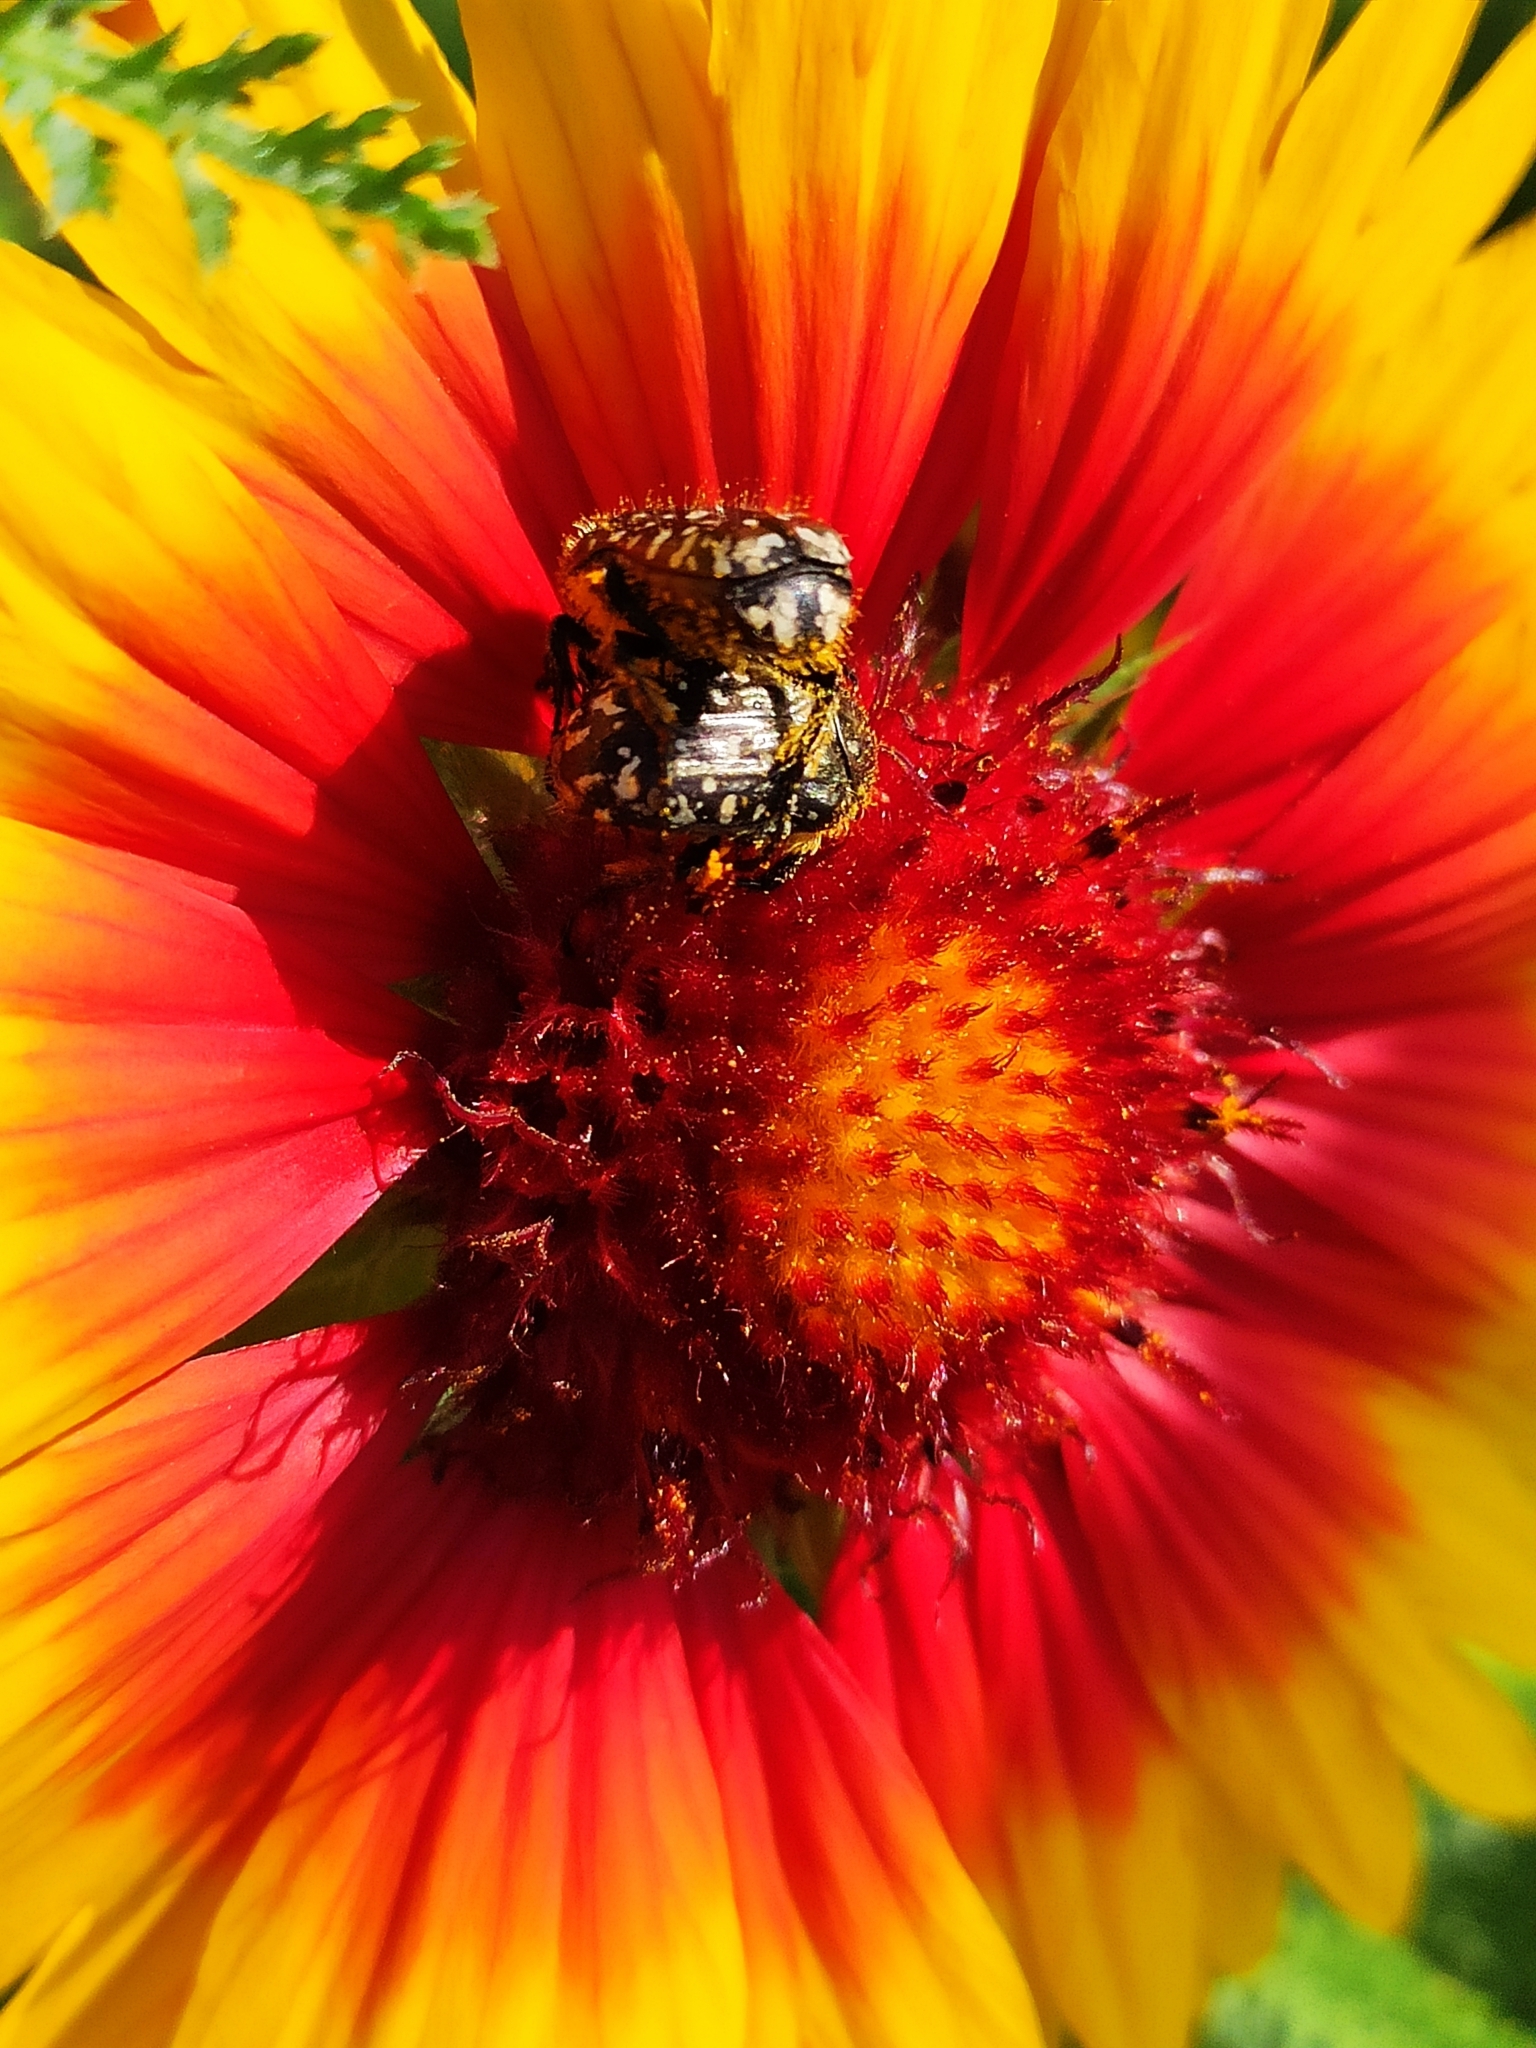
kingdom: Animalia
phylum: Arthropoda
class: Insecta
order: Coleoptera
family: Scarabaeidae
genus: Oxythyrea
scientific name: Oxythyrea funesta
